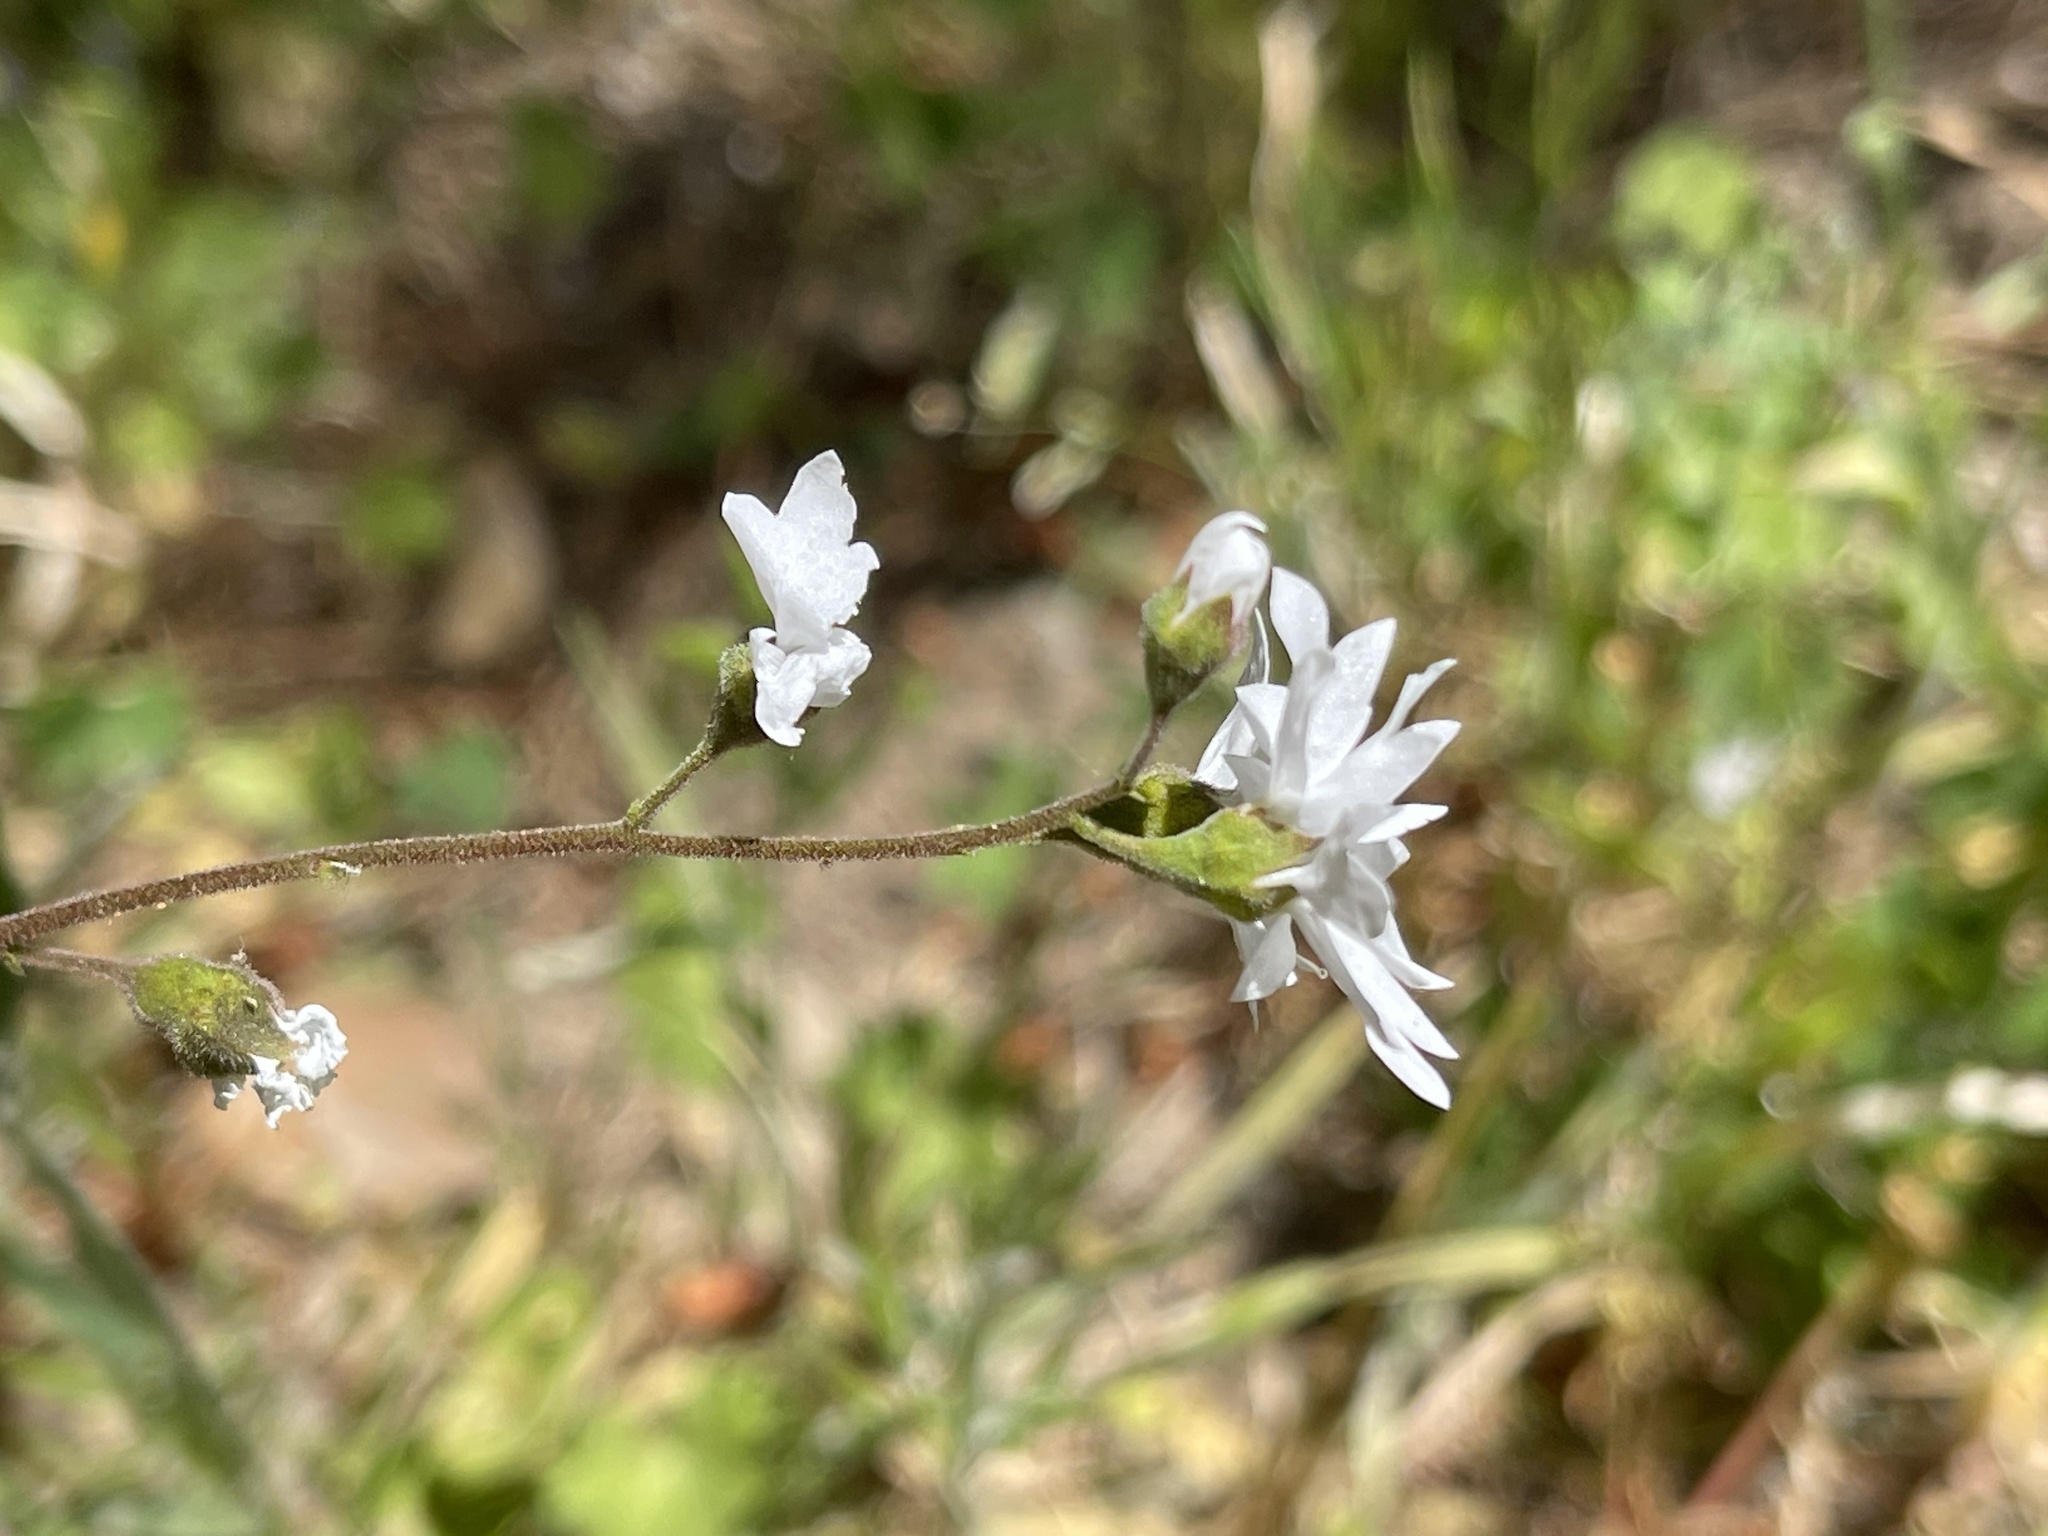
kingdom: Plantae
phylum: Tracheophyta
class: Magnoliopsida
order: Saxifragales
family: Saxifragaceae
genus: Lithophragma
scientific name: Lithophragma affine
